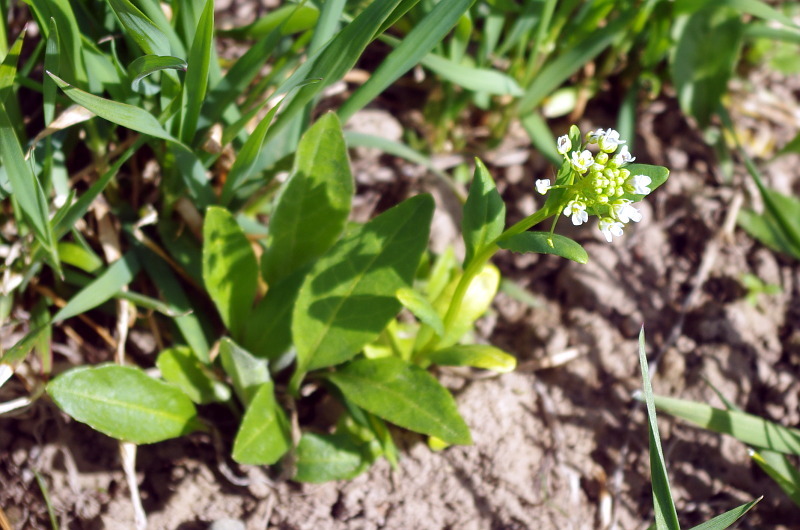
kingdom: Plantae
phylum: Tracheophyta
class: Magnoliopsida
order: Brassicales
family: Brassicaceae
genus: Thlaspi
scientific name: Thlaspi arvense
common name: Field pennycress
